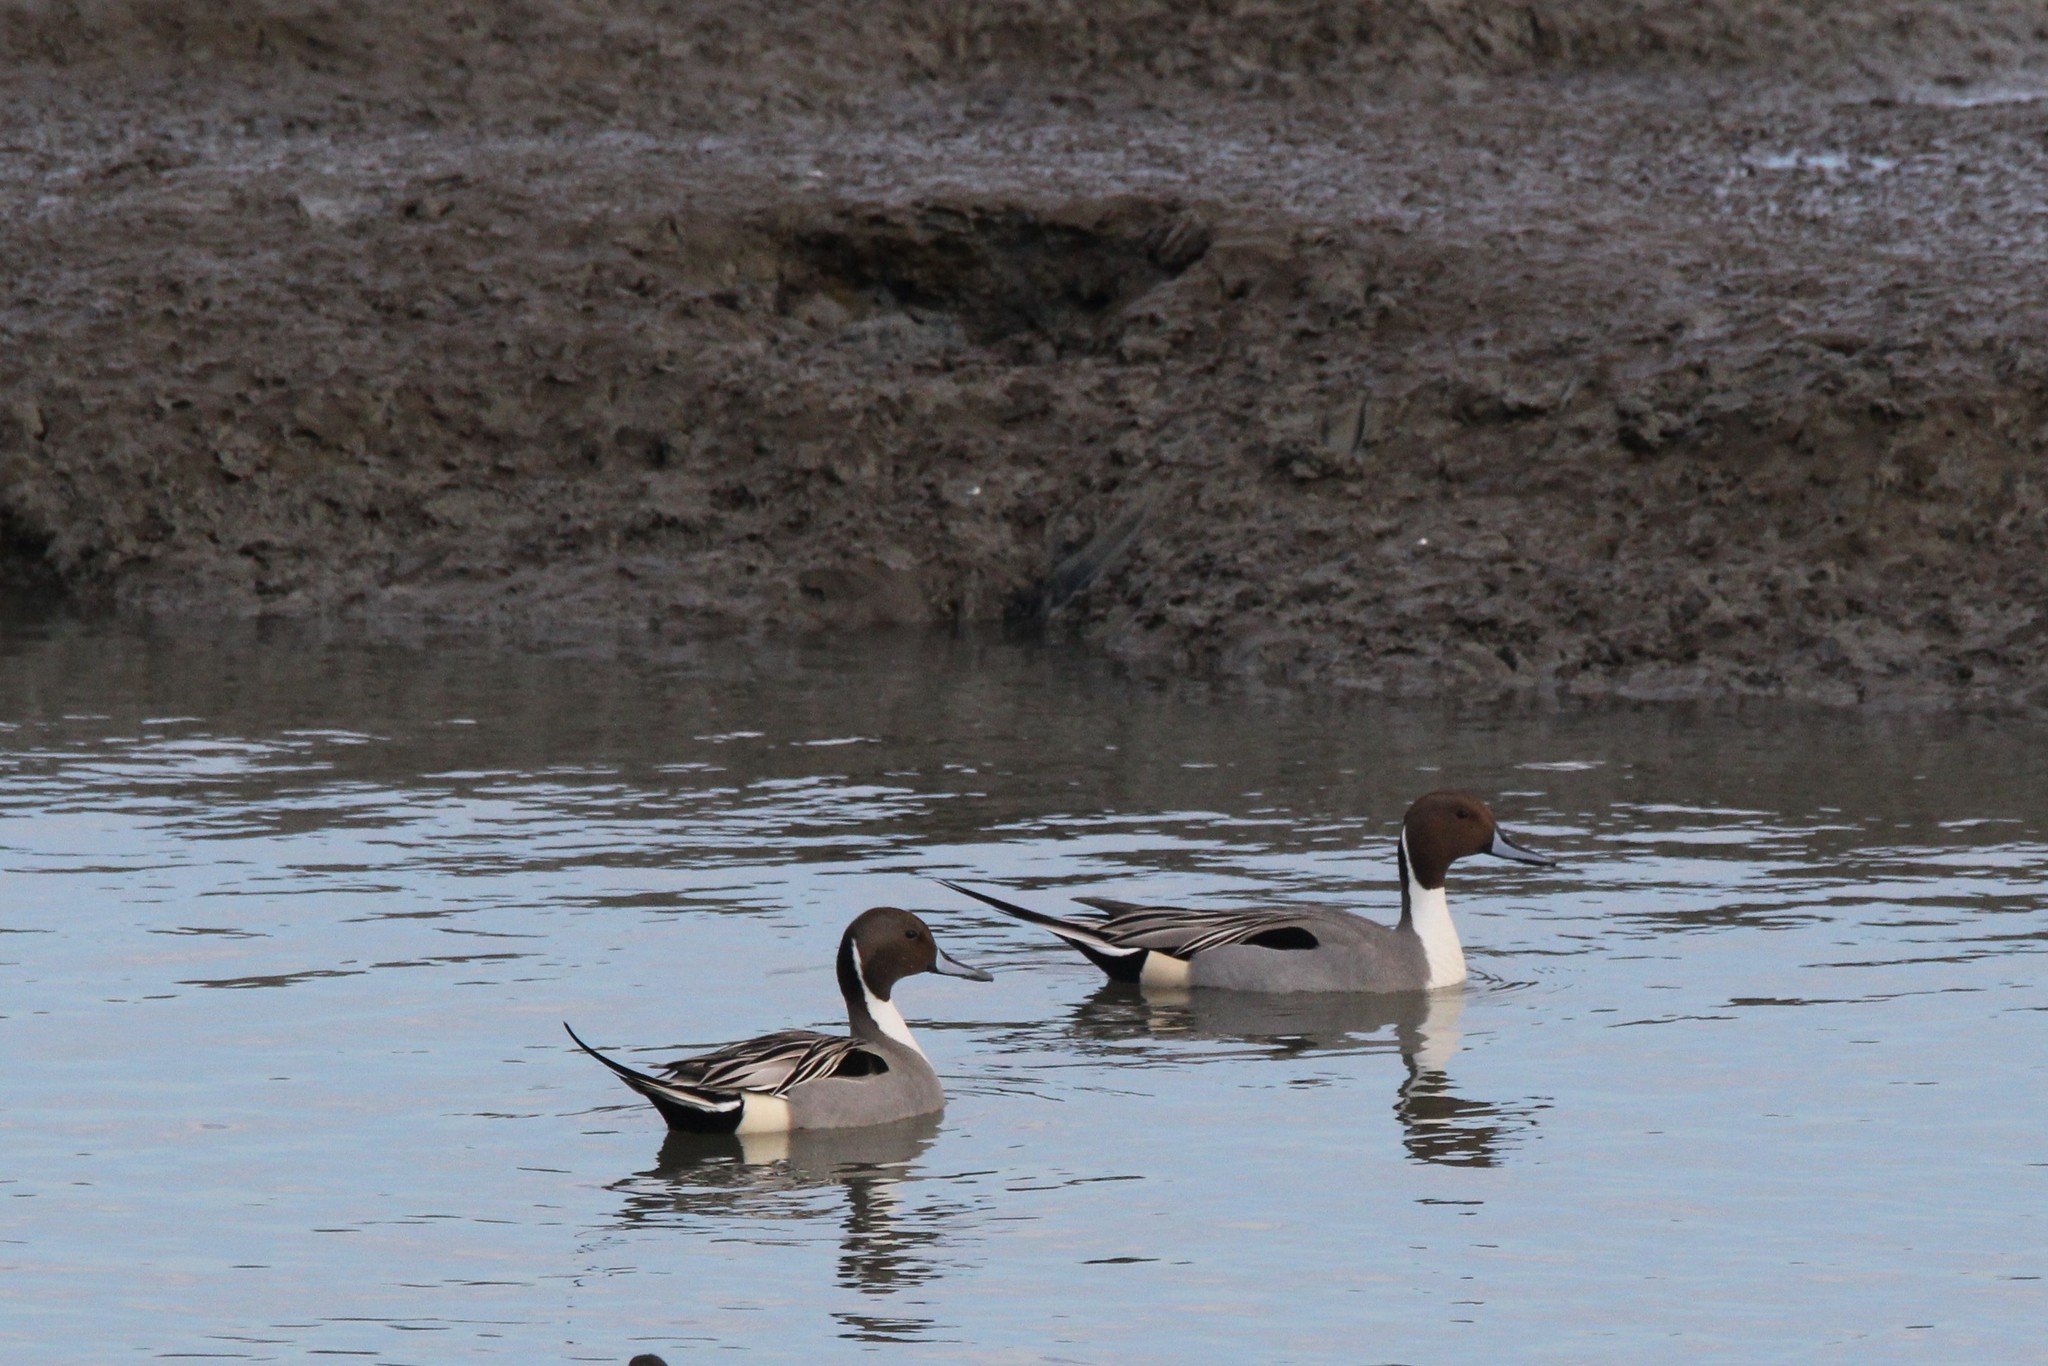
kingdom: Animalia
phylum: Chordata
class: Aves
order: Anseriformes
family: Anatidae
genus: Anas
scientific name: Anas acuta
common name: Northern pintail
